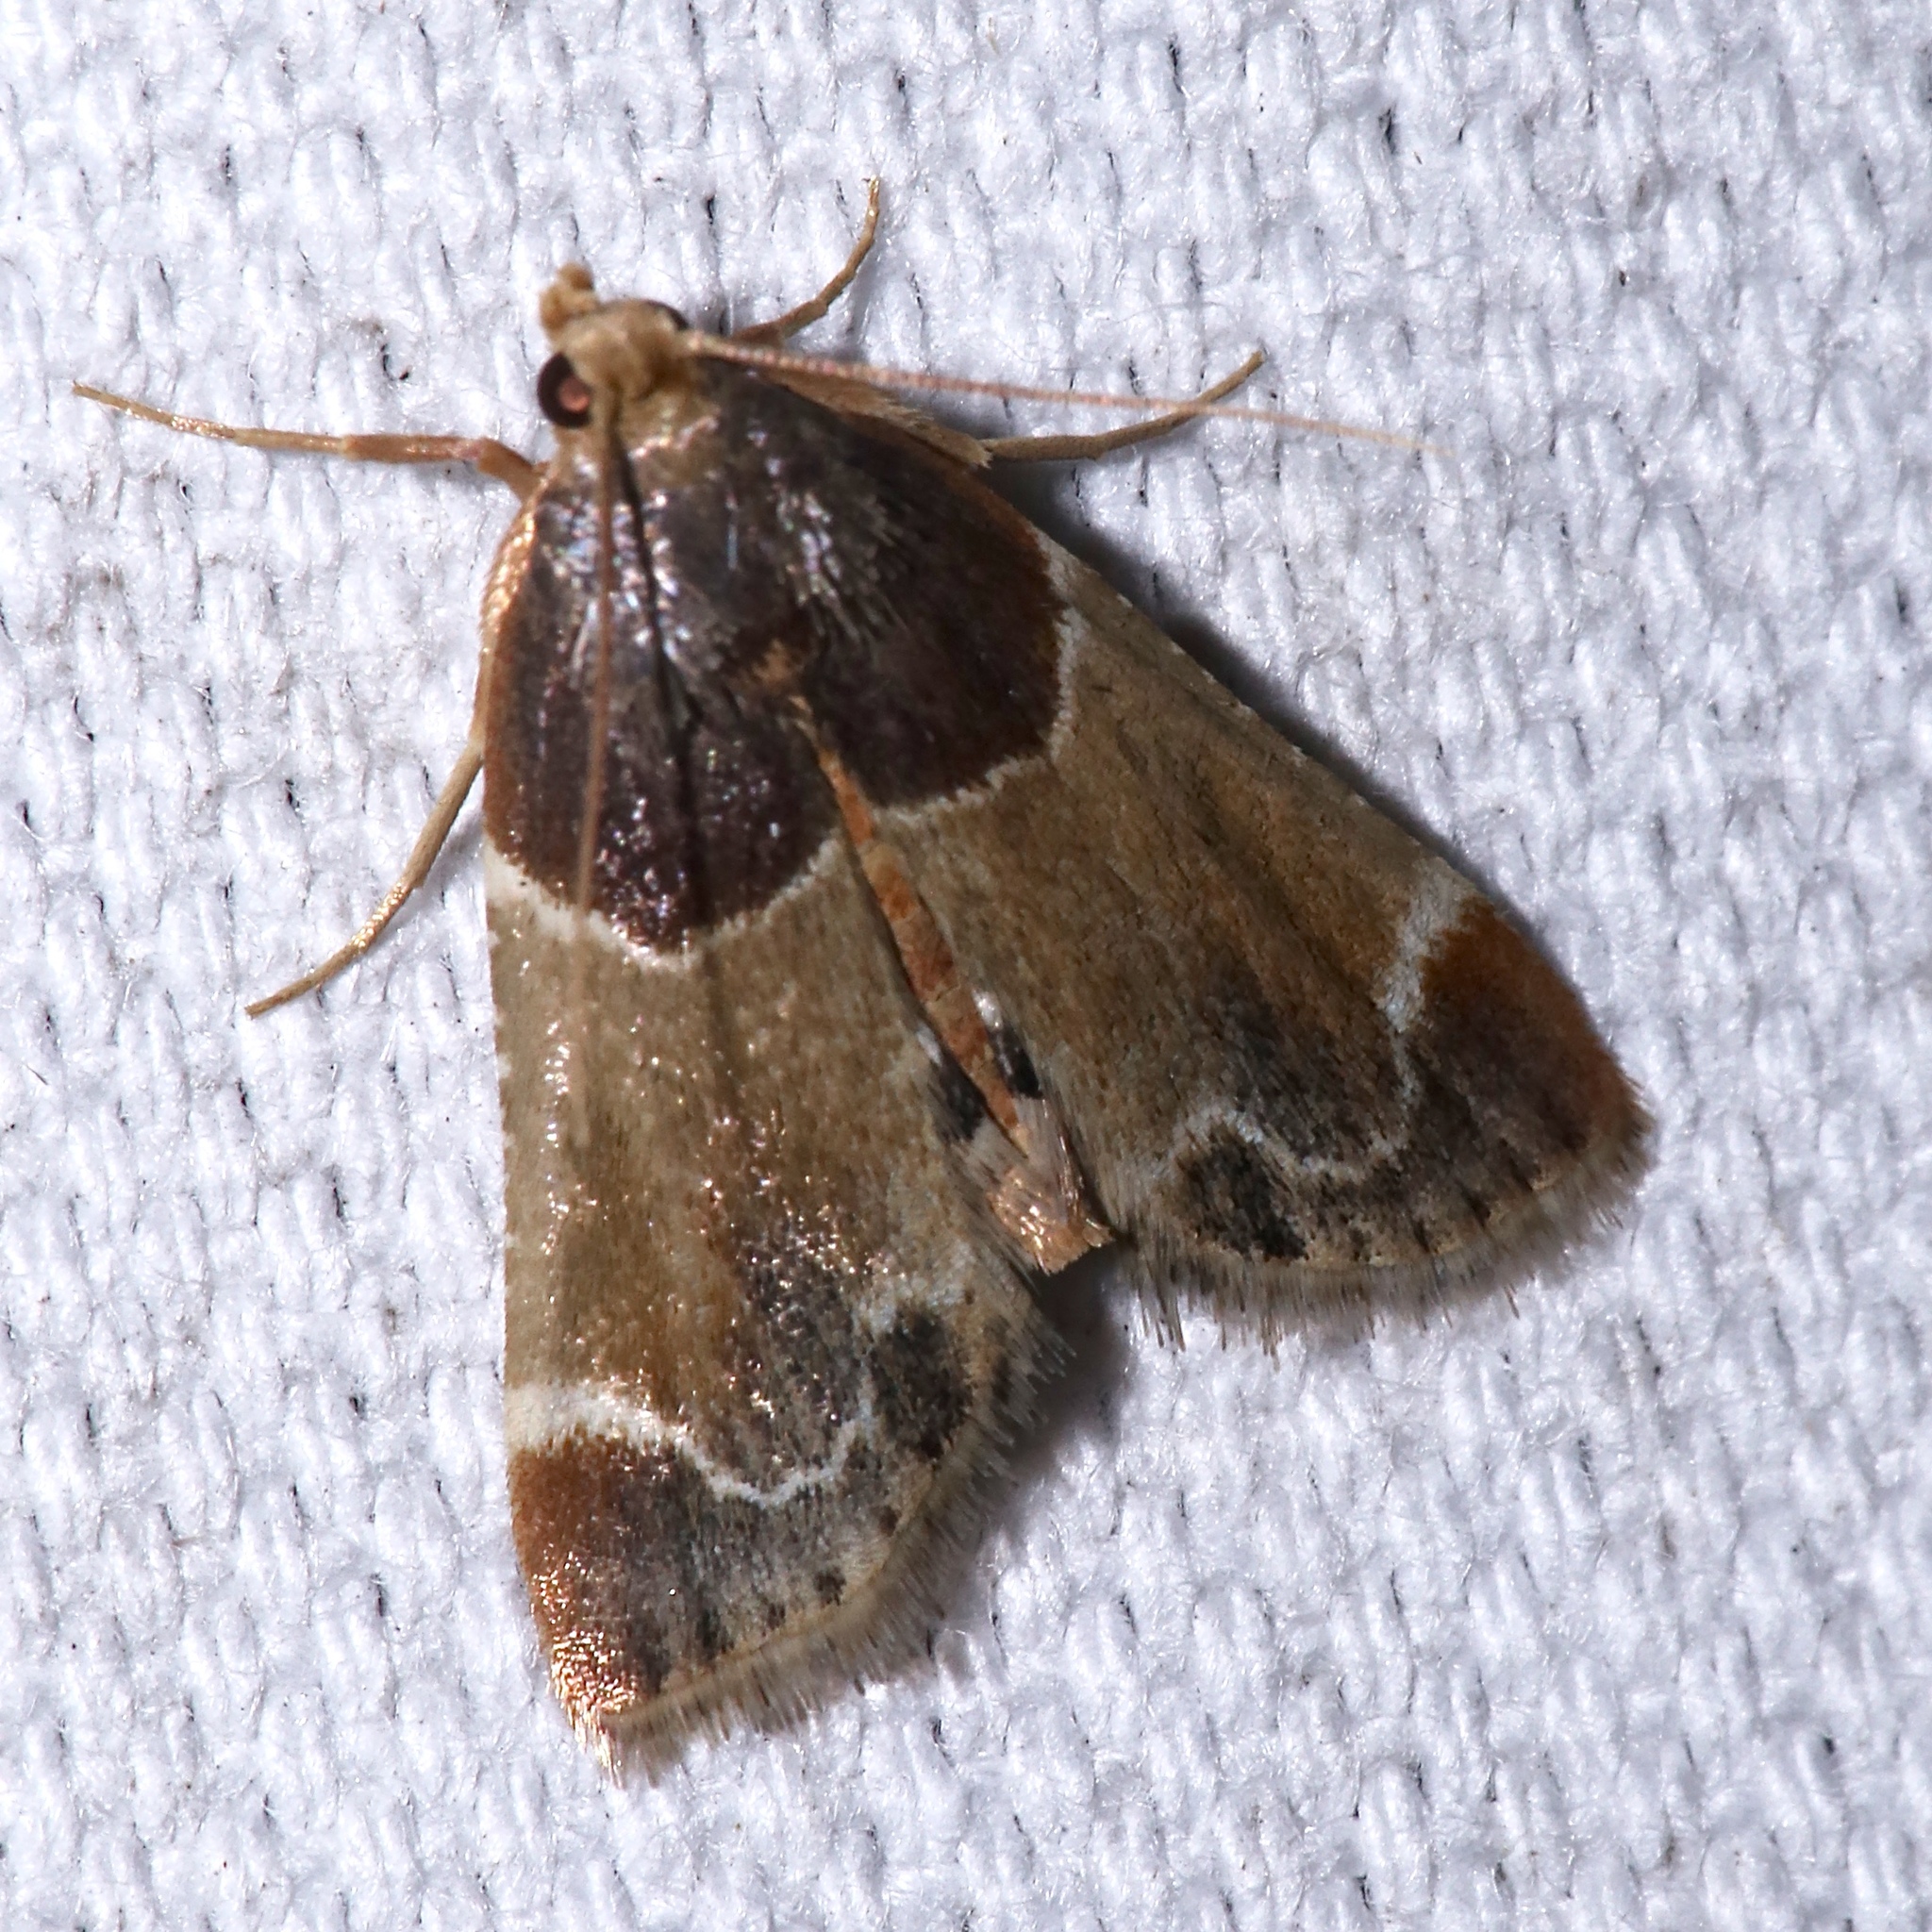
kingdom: Animalia
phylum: Arthropoda
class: Insecta
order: Lepidoptera
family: Pyralidae
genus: Pyralis
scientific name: Pyralis farinalis
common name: Meal moth
